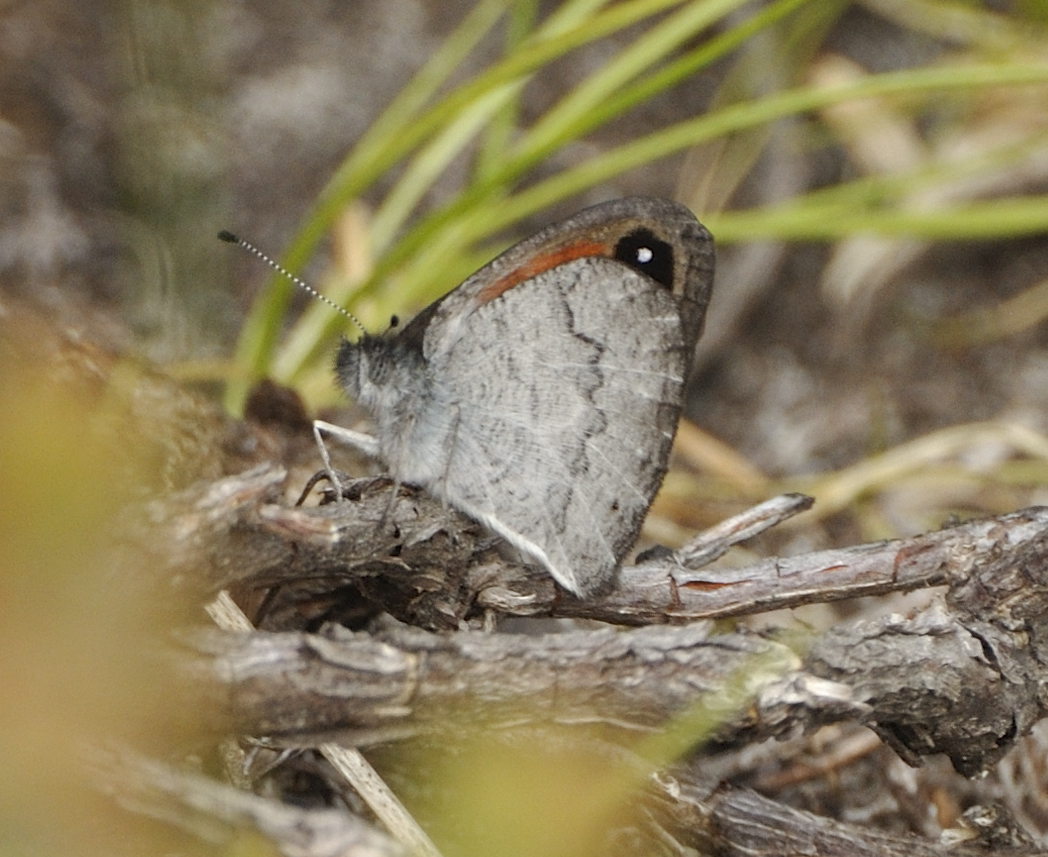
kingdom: Animalia
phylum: Arthropoda
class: Insecta
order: Lepidoptera
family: Nymphalidae
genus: Pseudonympha
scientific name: Pseudonympha hippia
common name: Table mountain brown
